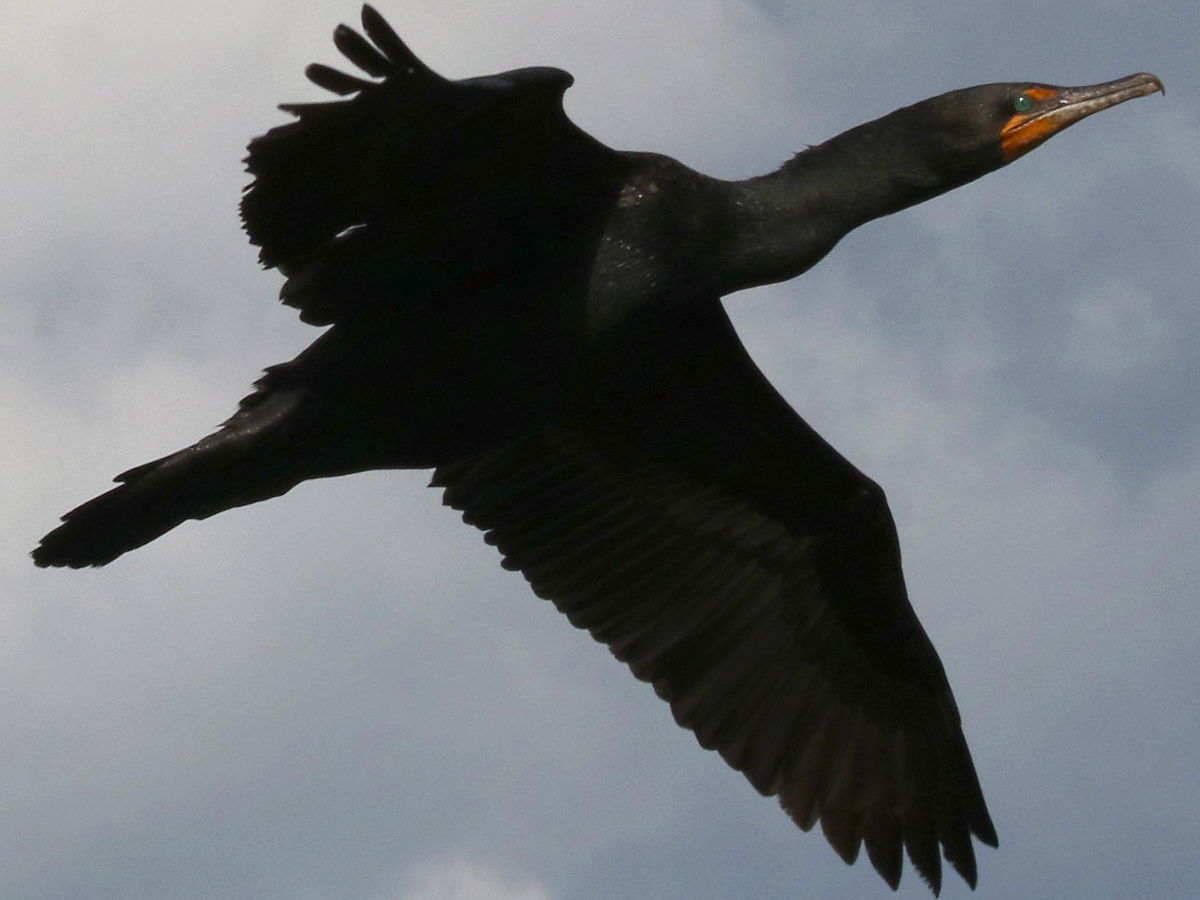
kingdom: Animalia
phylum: Chordata
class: Aves
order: Suliformes
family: Phalacrocoracidae
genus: Phalacrocorax
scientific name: Phalacrocorax auritus
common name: Double-crested cormorant
